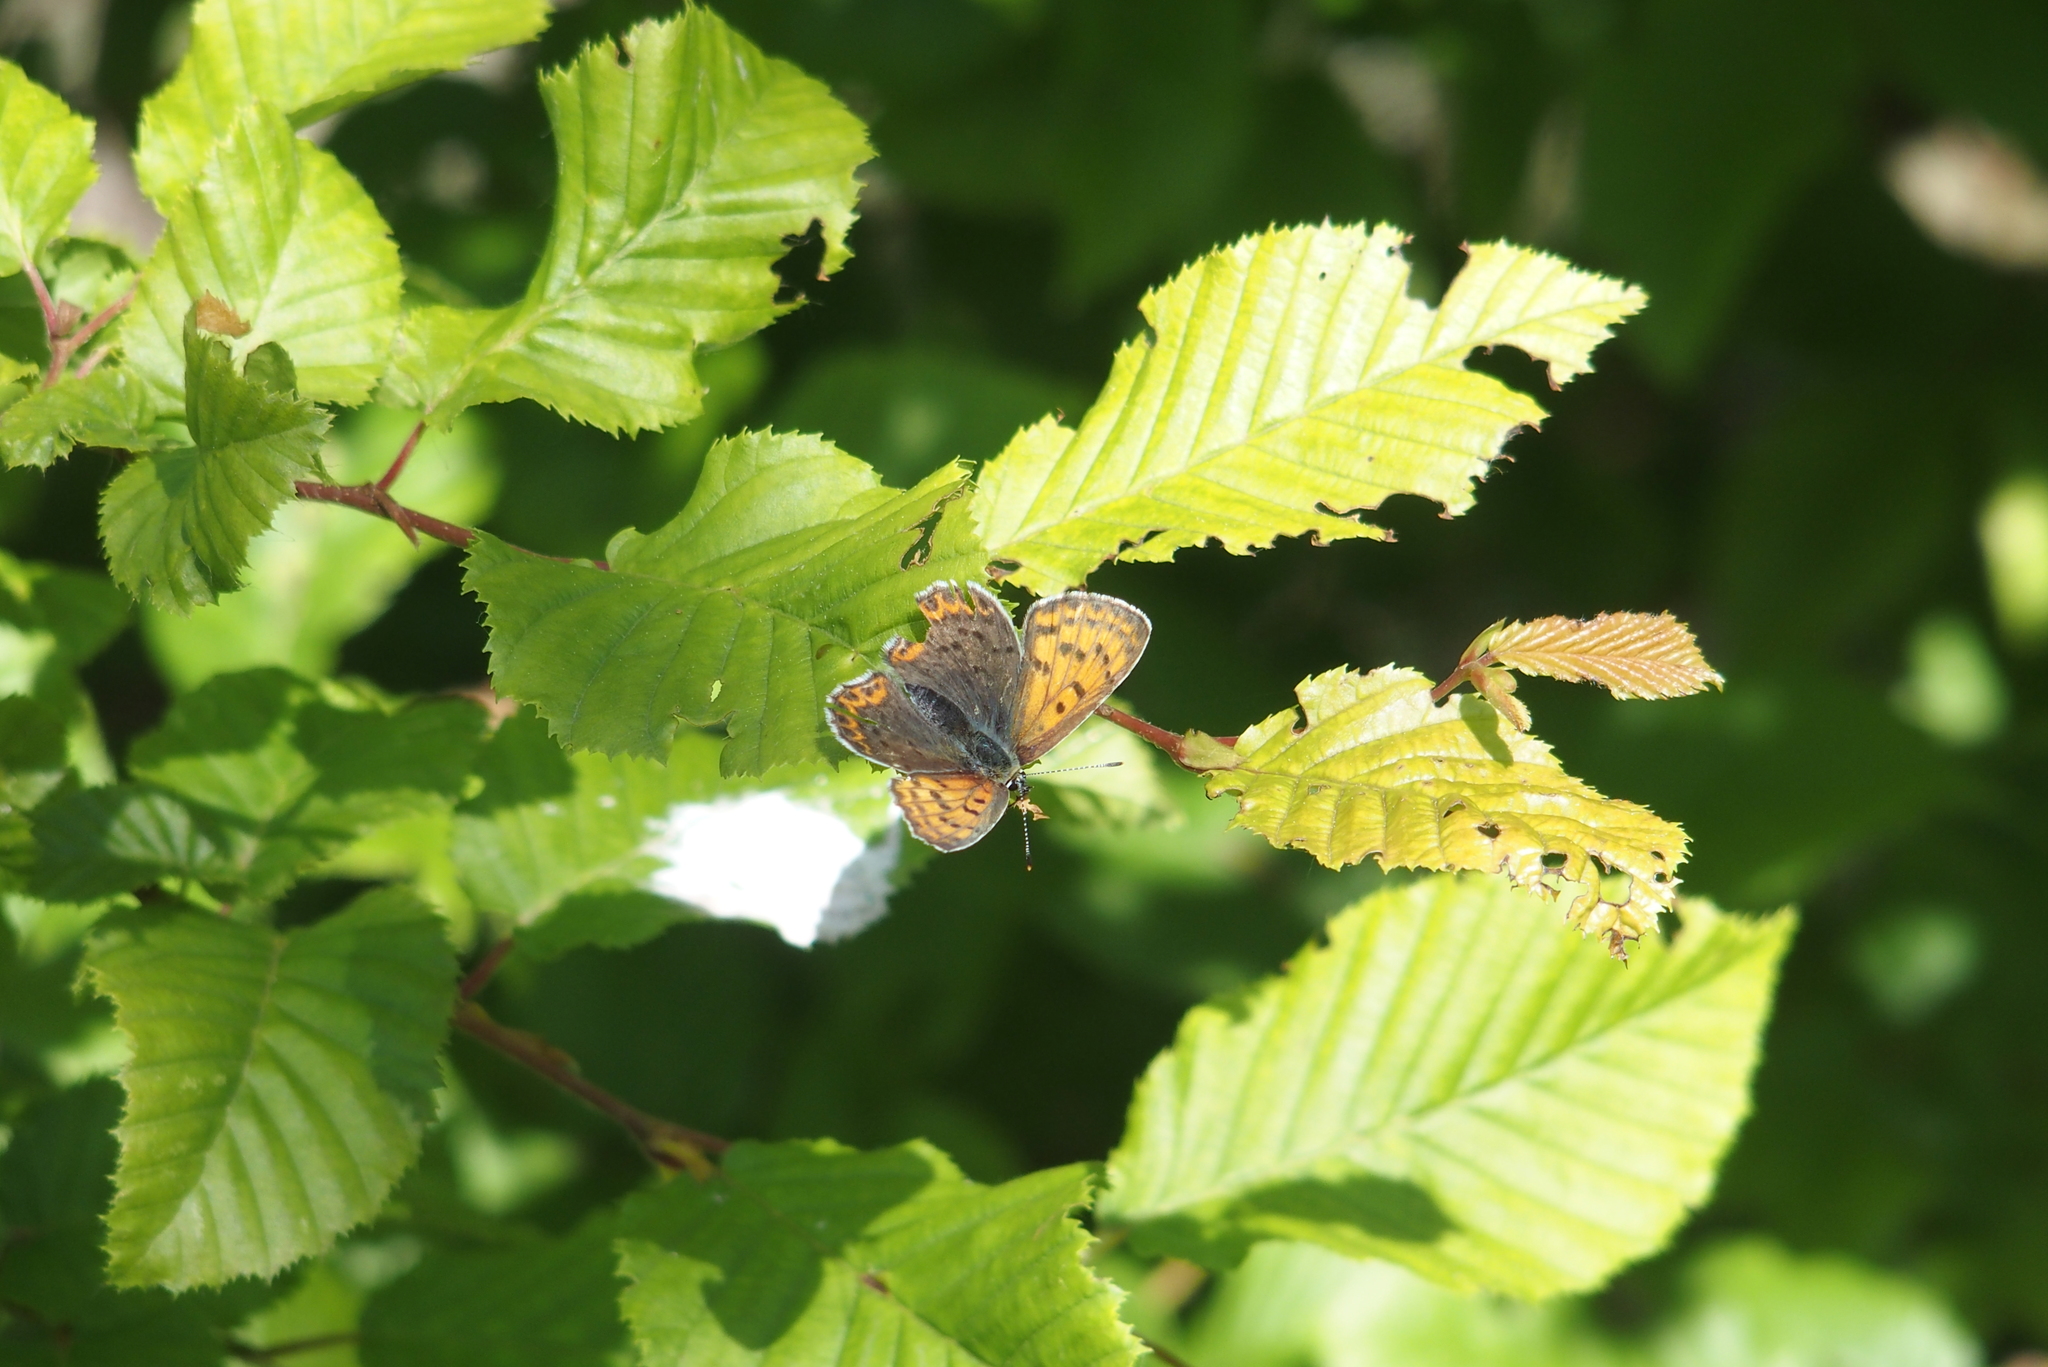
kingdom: Animalia
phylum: Arthropoda
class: Insecta
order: Lepidoptera
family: Lycaenidae
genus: Loweia
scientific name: Loweia tityrus
